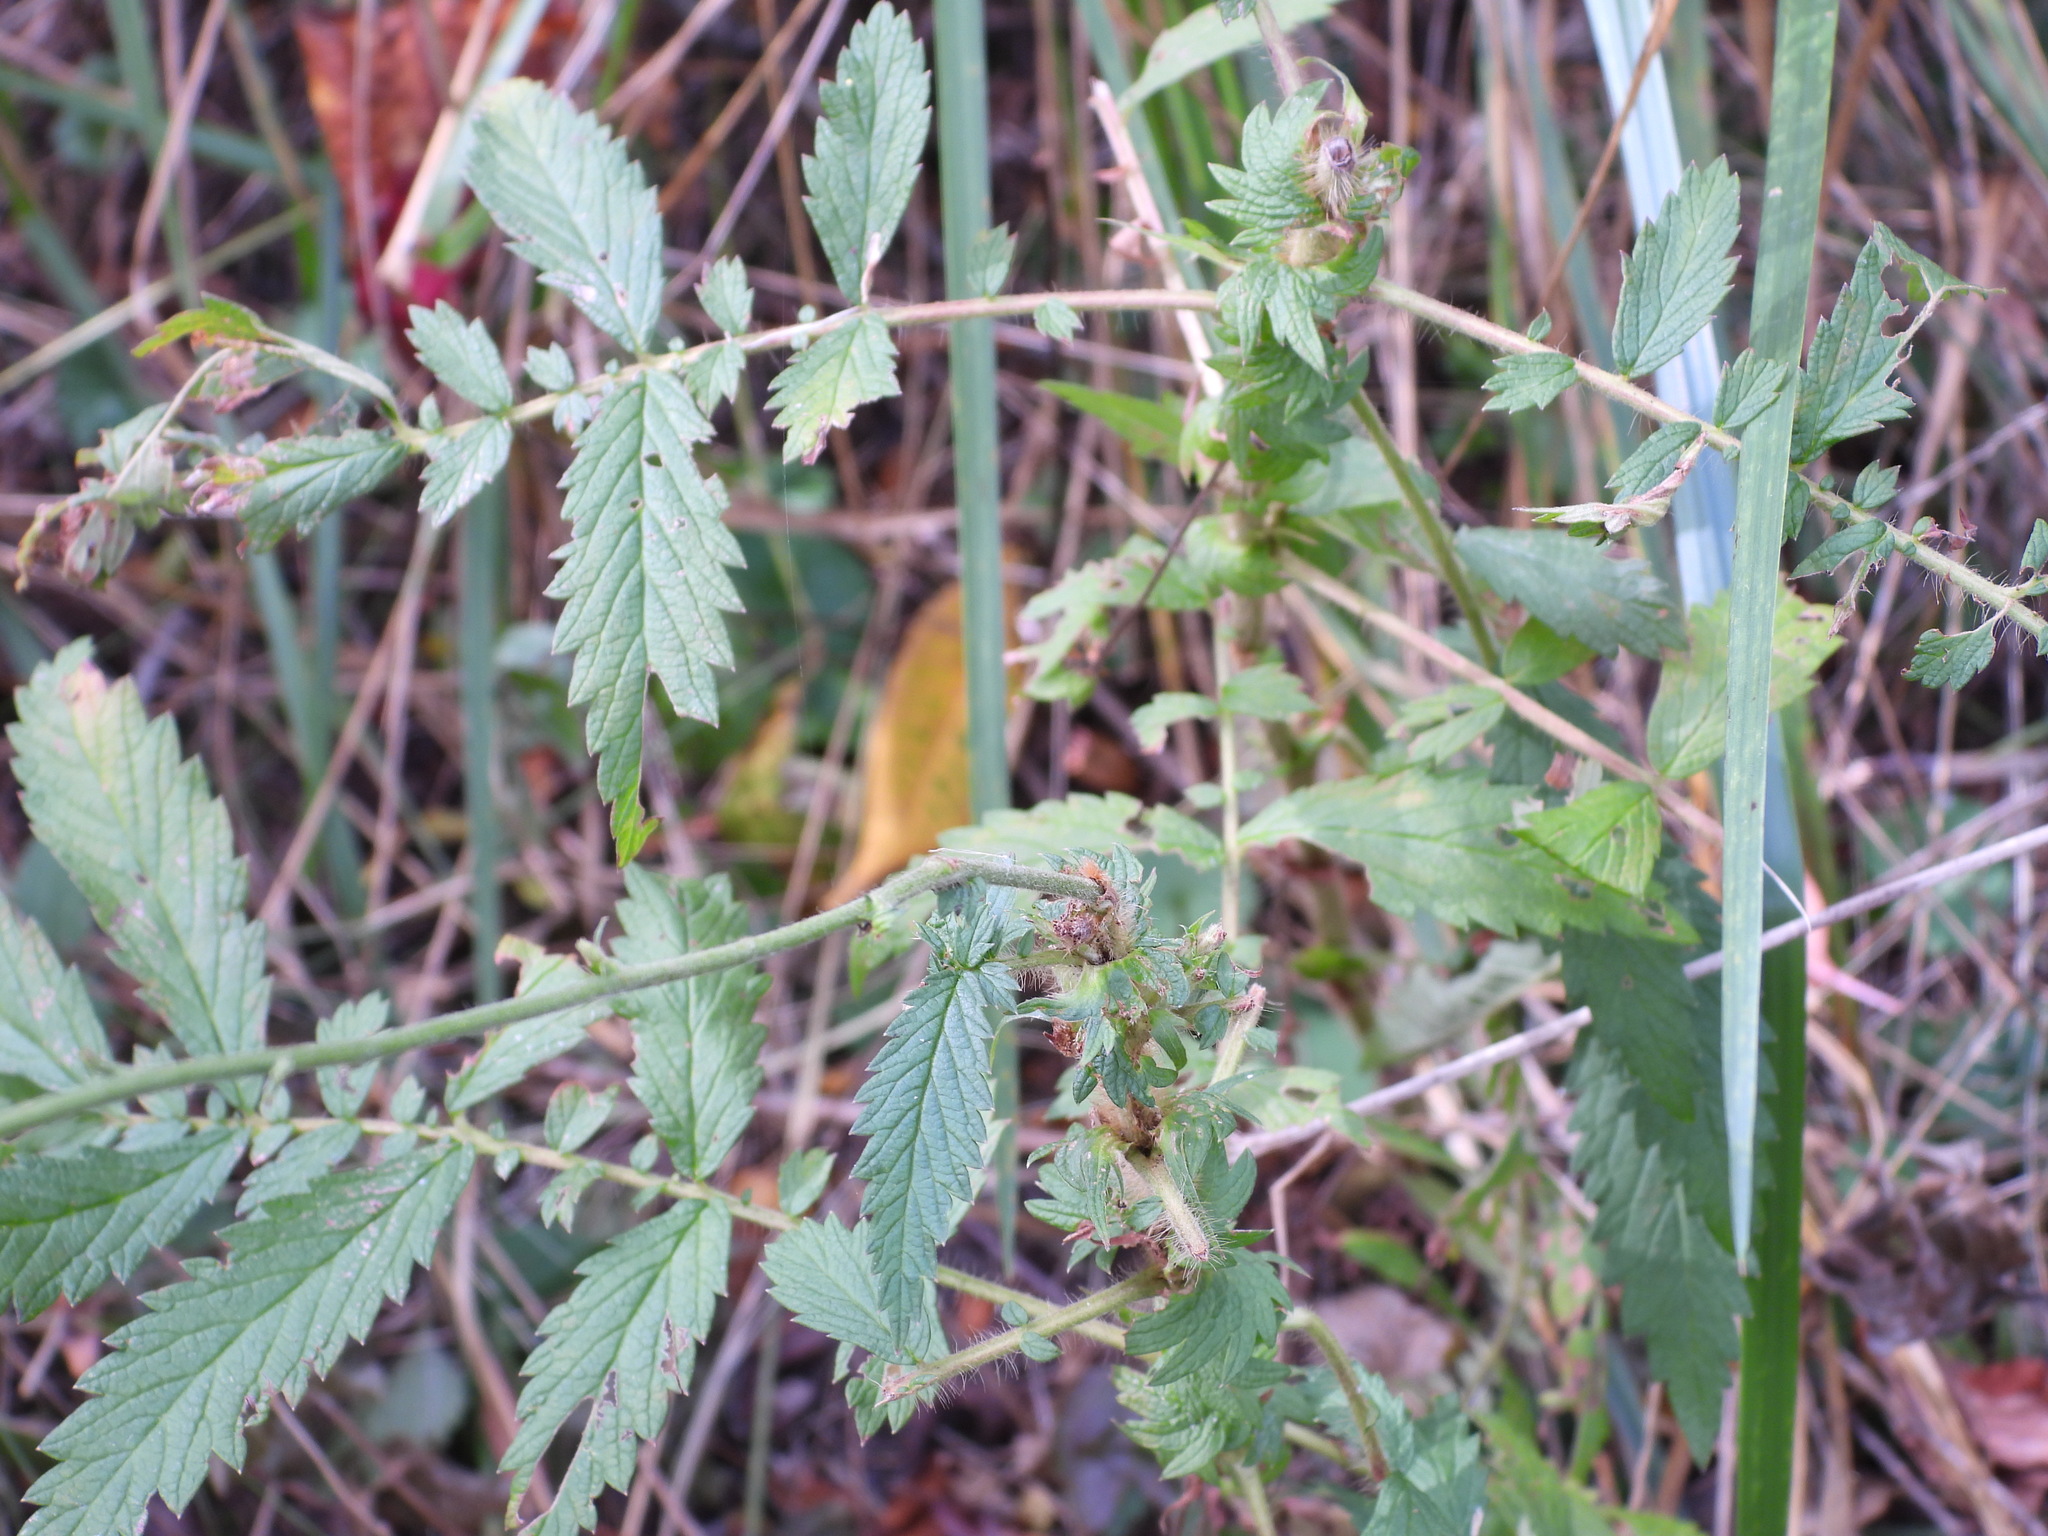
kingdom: Plantae
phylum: Tracheophyta
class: Magnoliopsida
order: Rosales
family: Rosaceae
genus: Agrimonia
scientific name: Agrimonia parviflora
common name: Harvest-lice
